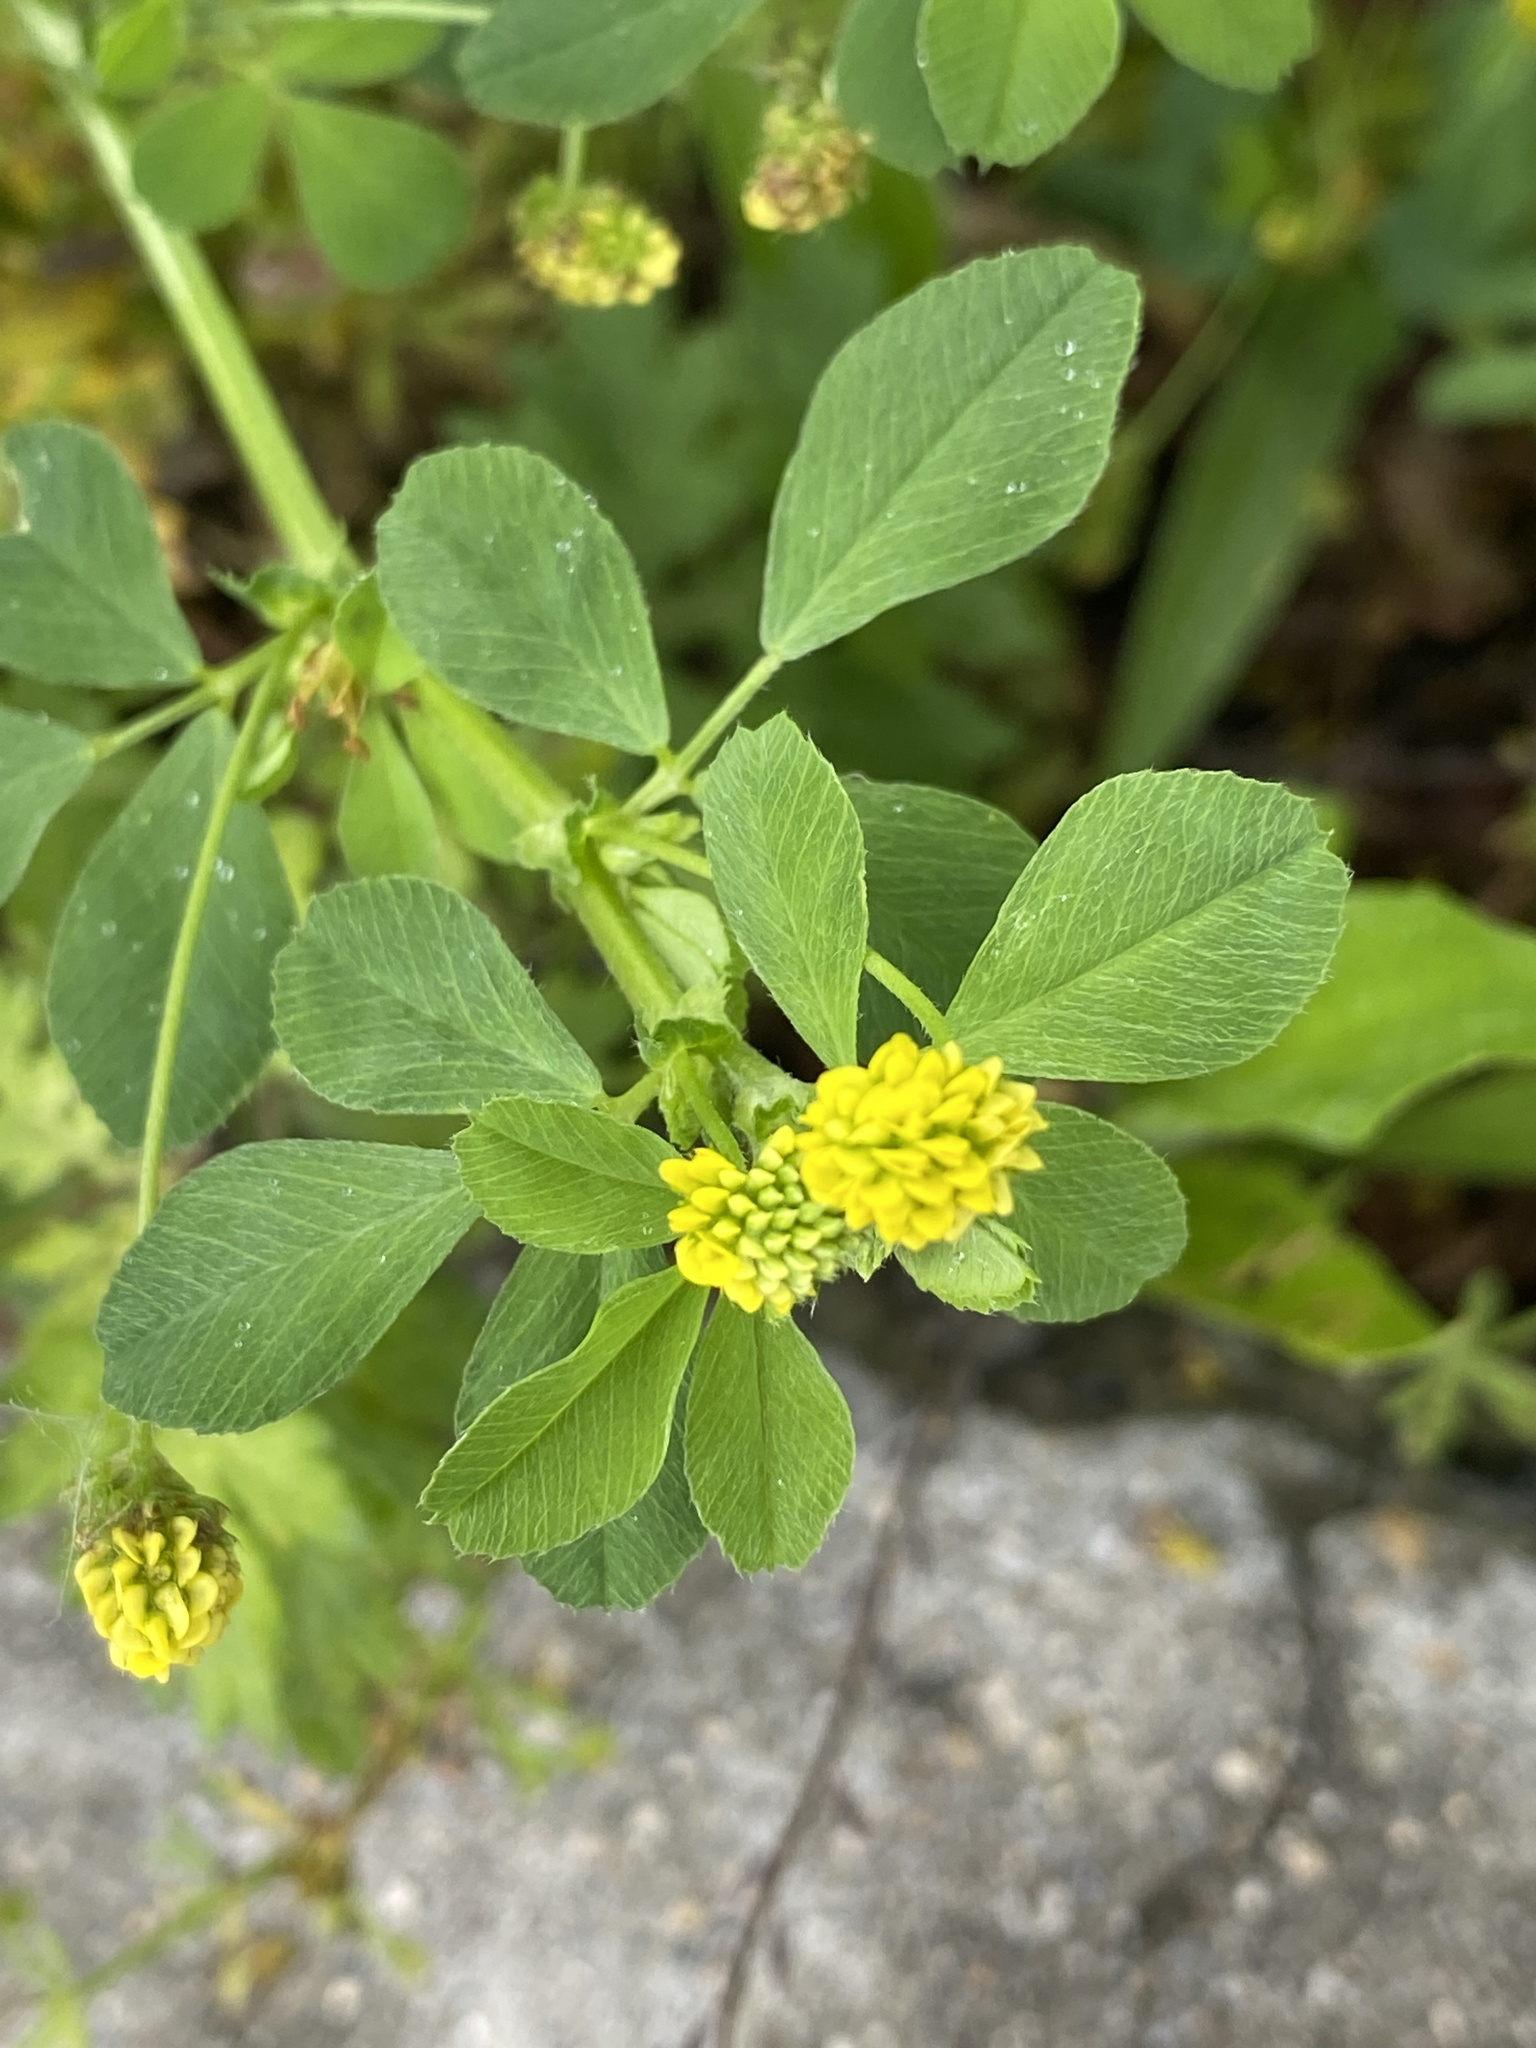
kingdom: Plantae
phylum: Tracheophyta
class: Magnoliopsida
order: Fabales
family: Fabaceae
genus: Medicago
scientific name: Medicago lupulina
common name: Black medick
